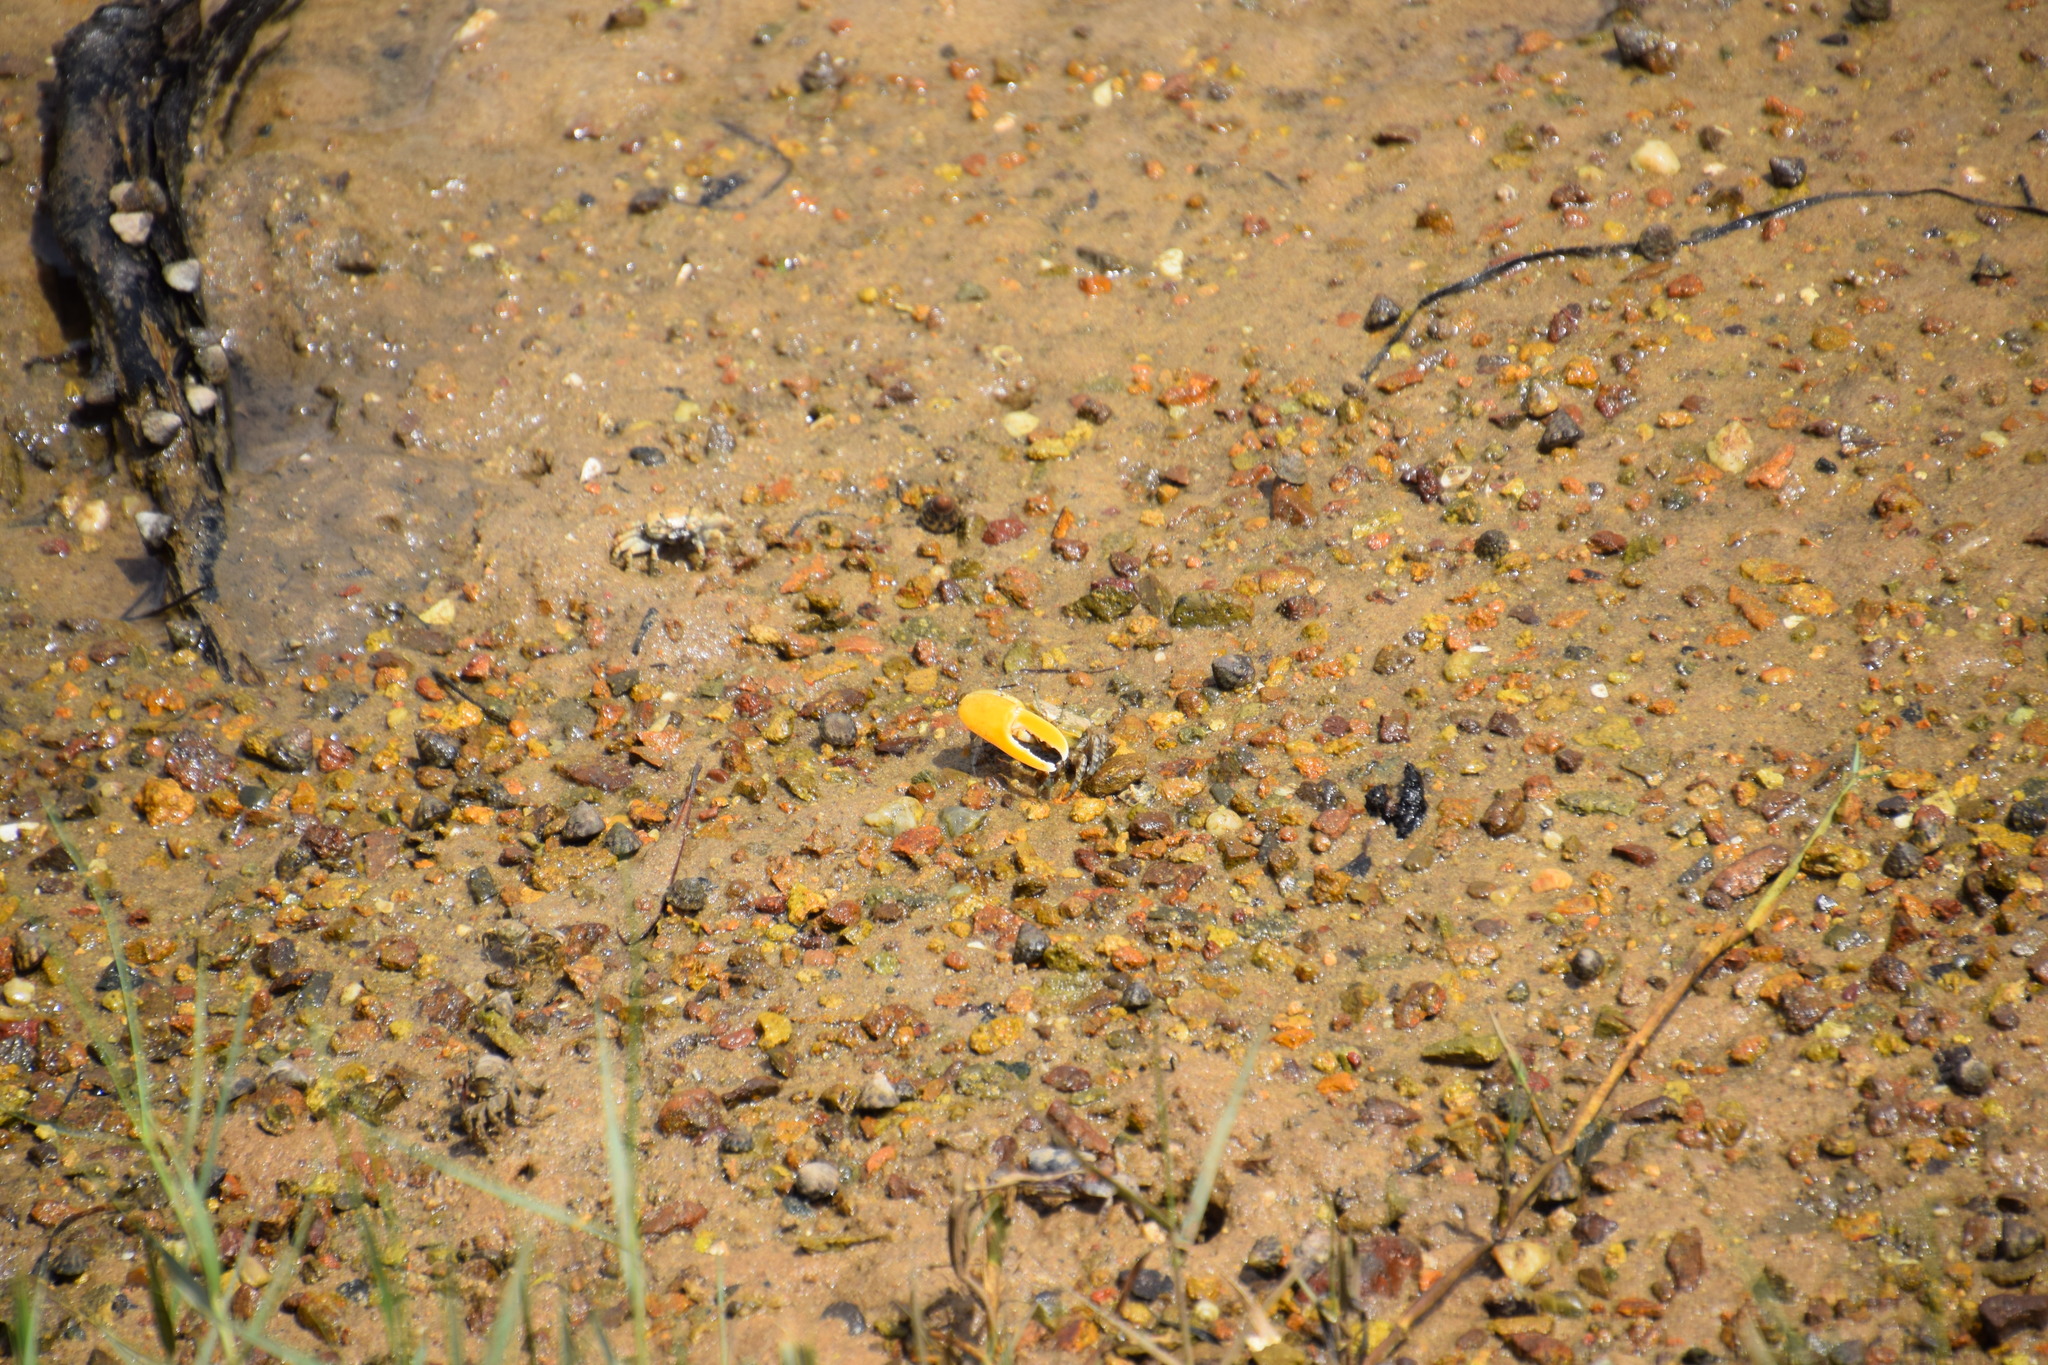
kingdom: Animalia
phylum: Arthropoda
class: Malacostraca
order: Decapoda
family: Ocypodidae
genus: Austruca
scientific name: Austruca perplexa
